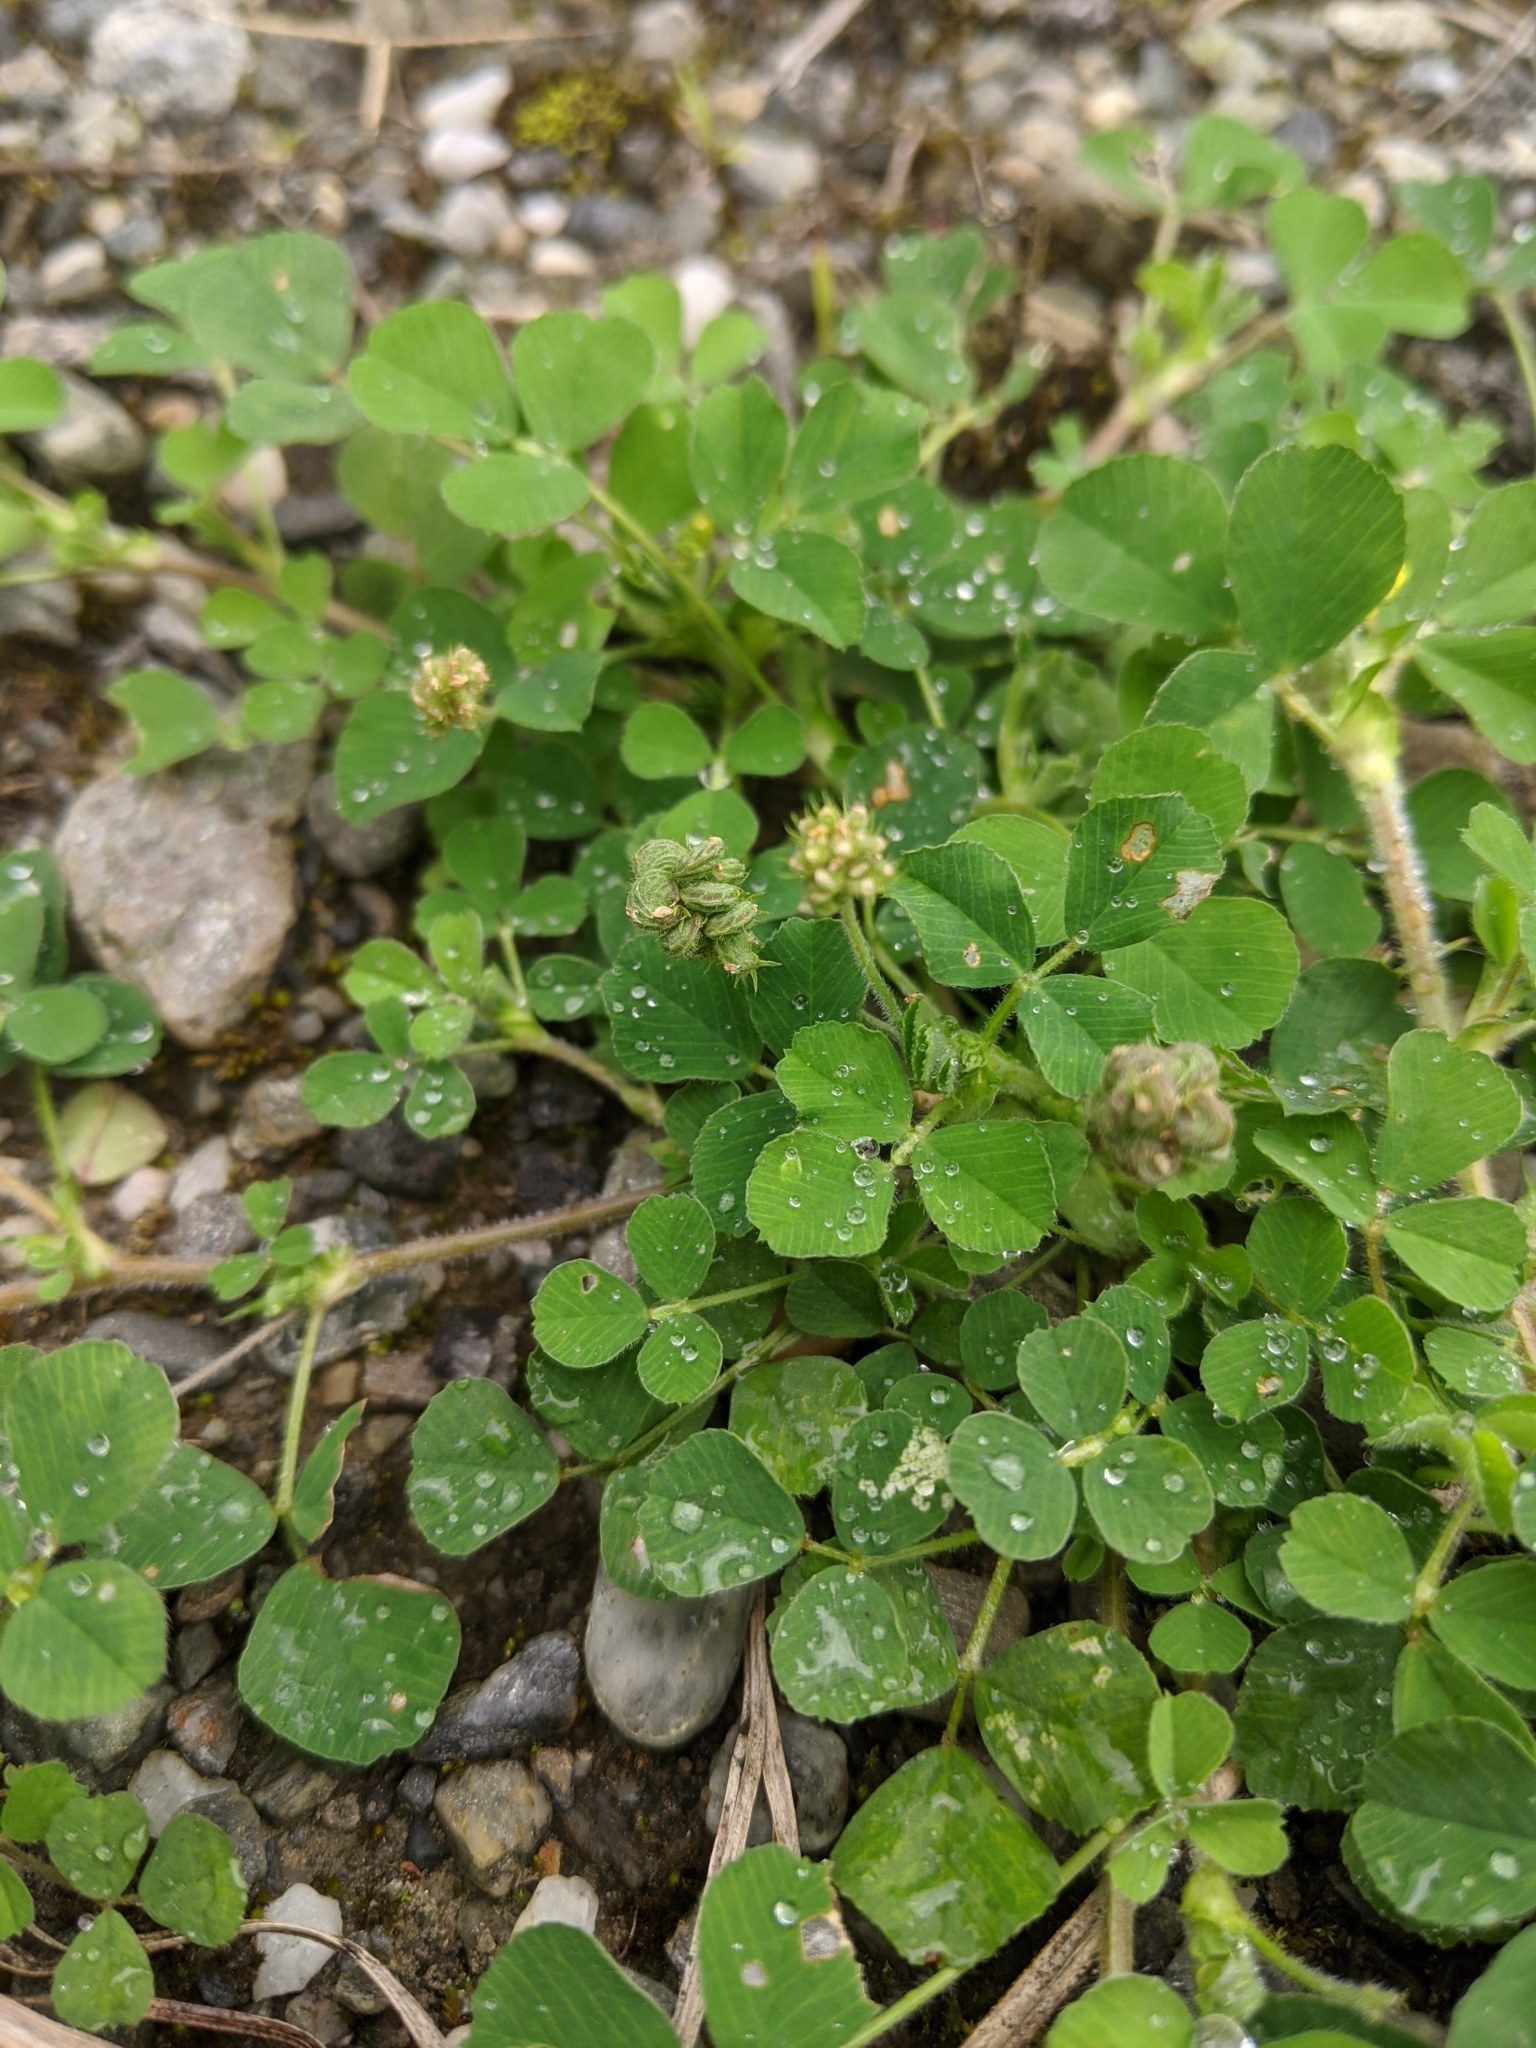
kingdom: Plantae
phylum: Tracheophyta
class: Magnoliopsida
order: Fabales
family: Fabaceae
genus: Medicago
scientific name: Medicago lupulina
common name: Black medick
